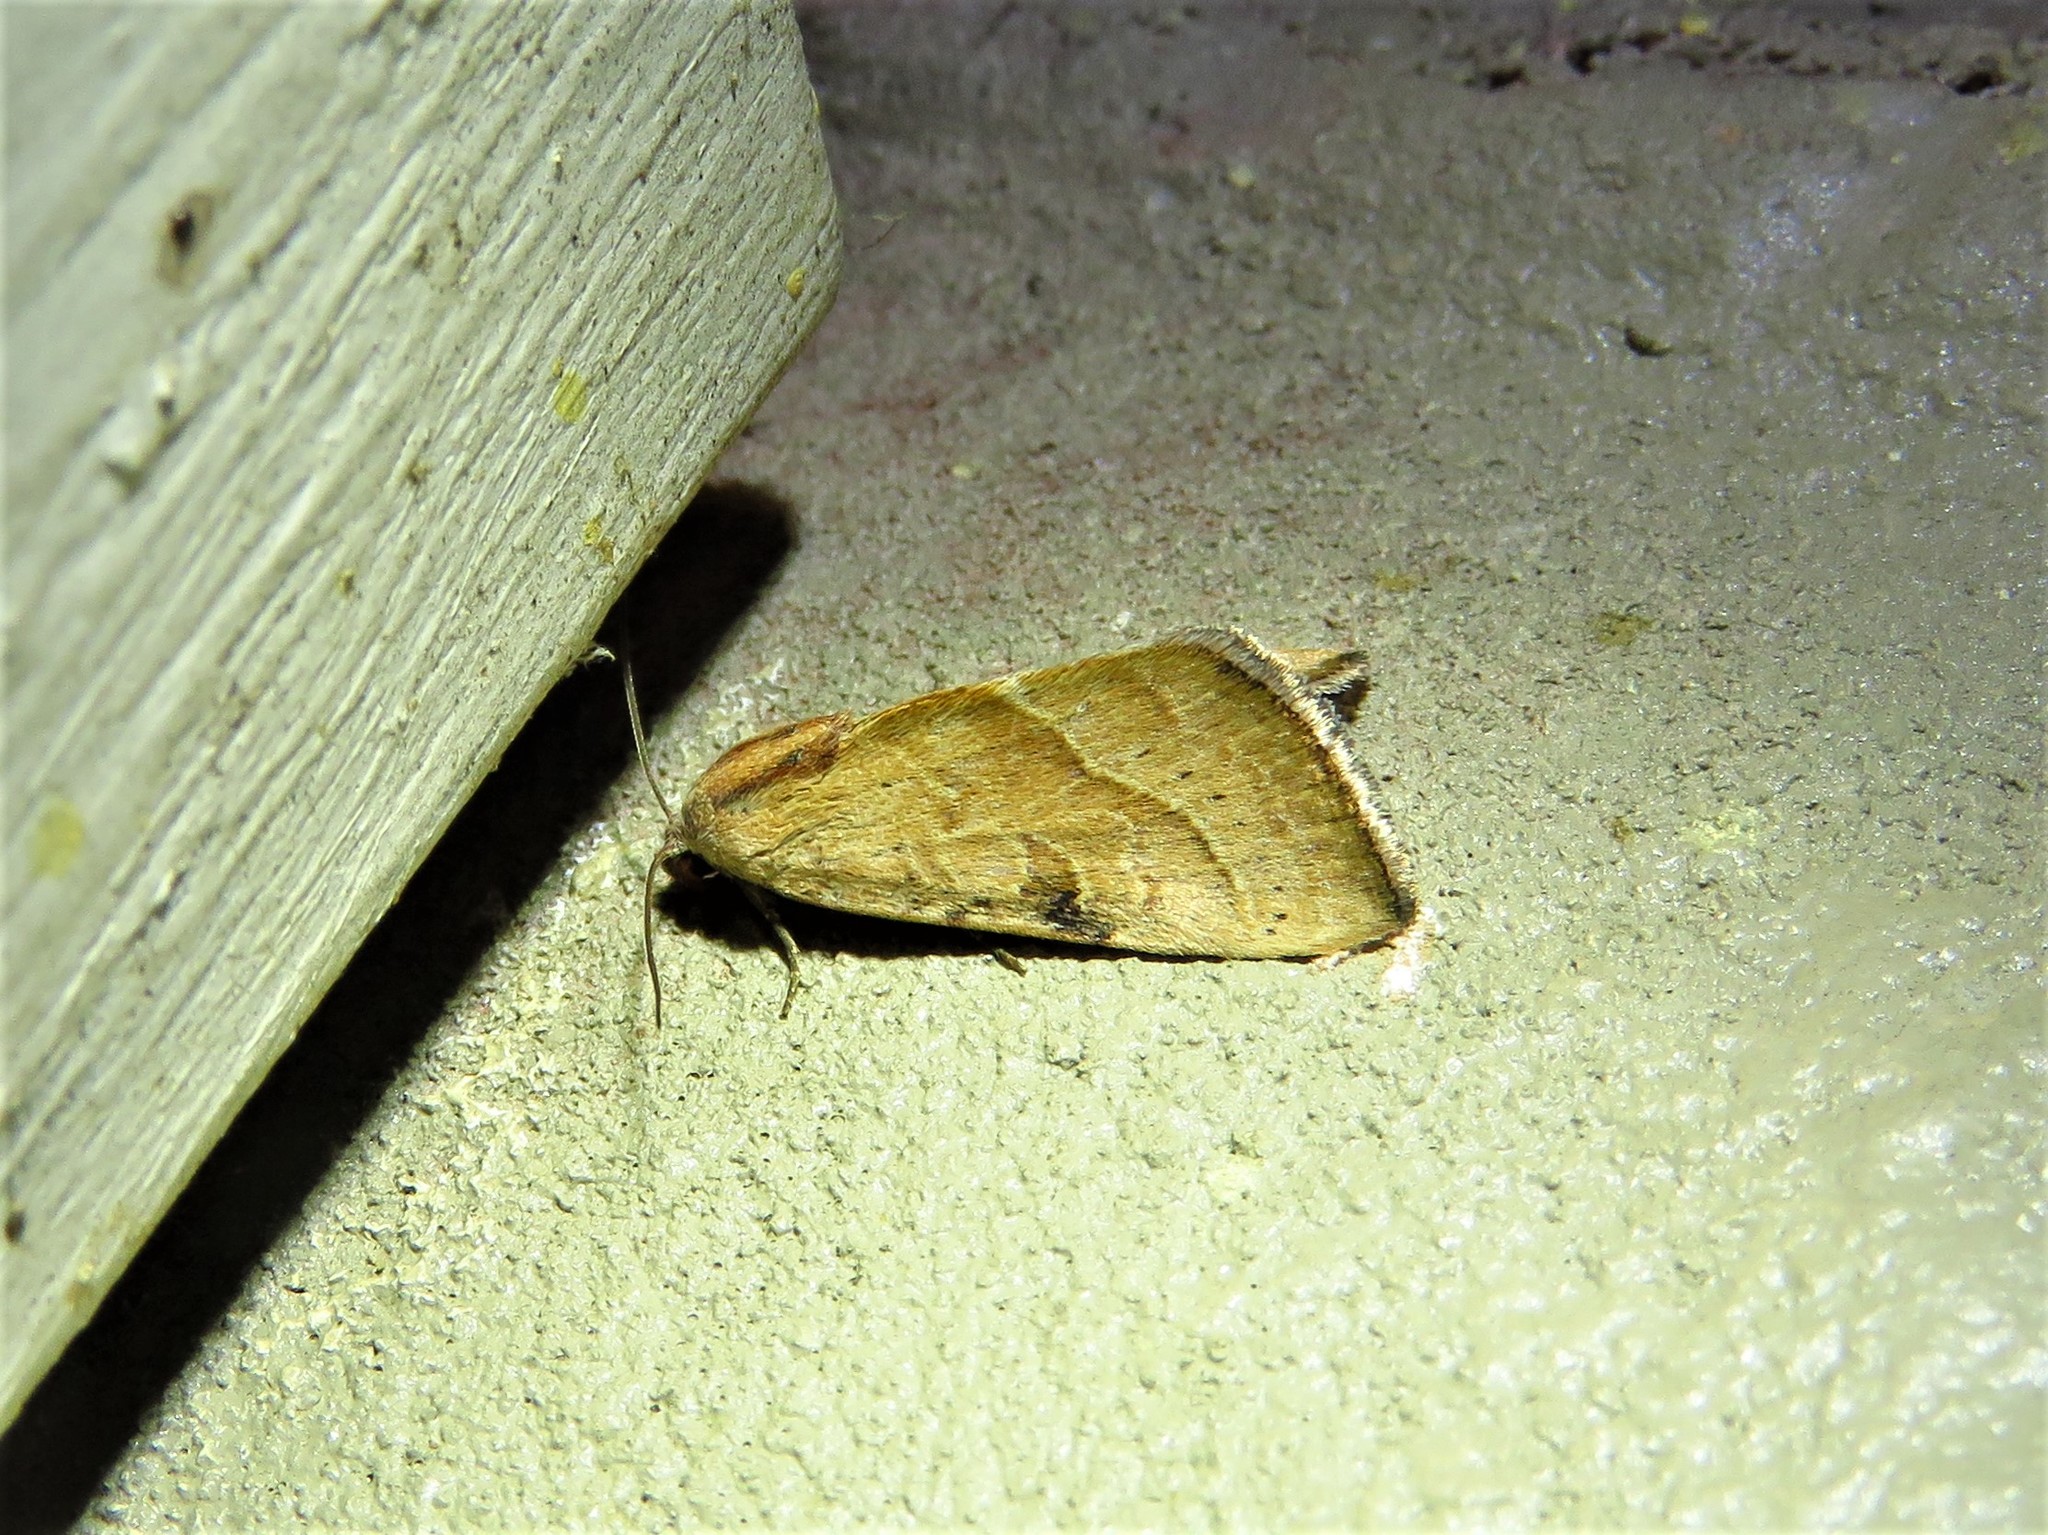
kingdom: Animalia
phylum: Arthropoda
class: Insecta
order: Lepidoptera
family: Noctuidae
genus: Galgula
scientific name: Galgula partita
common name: Wedgeling
